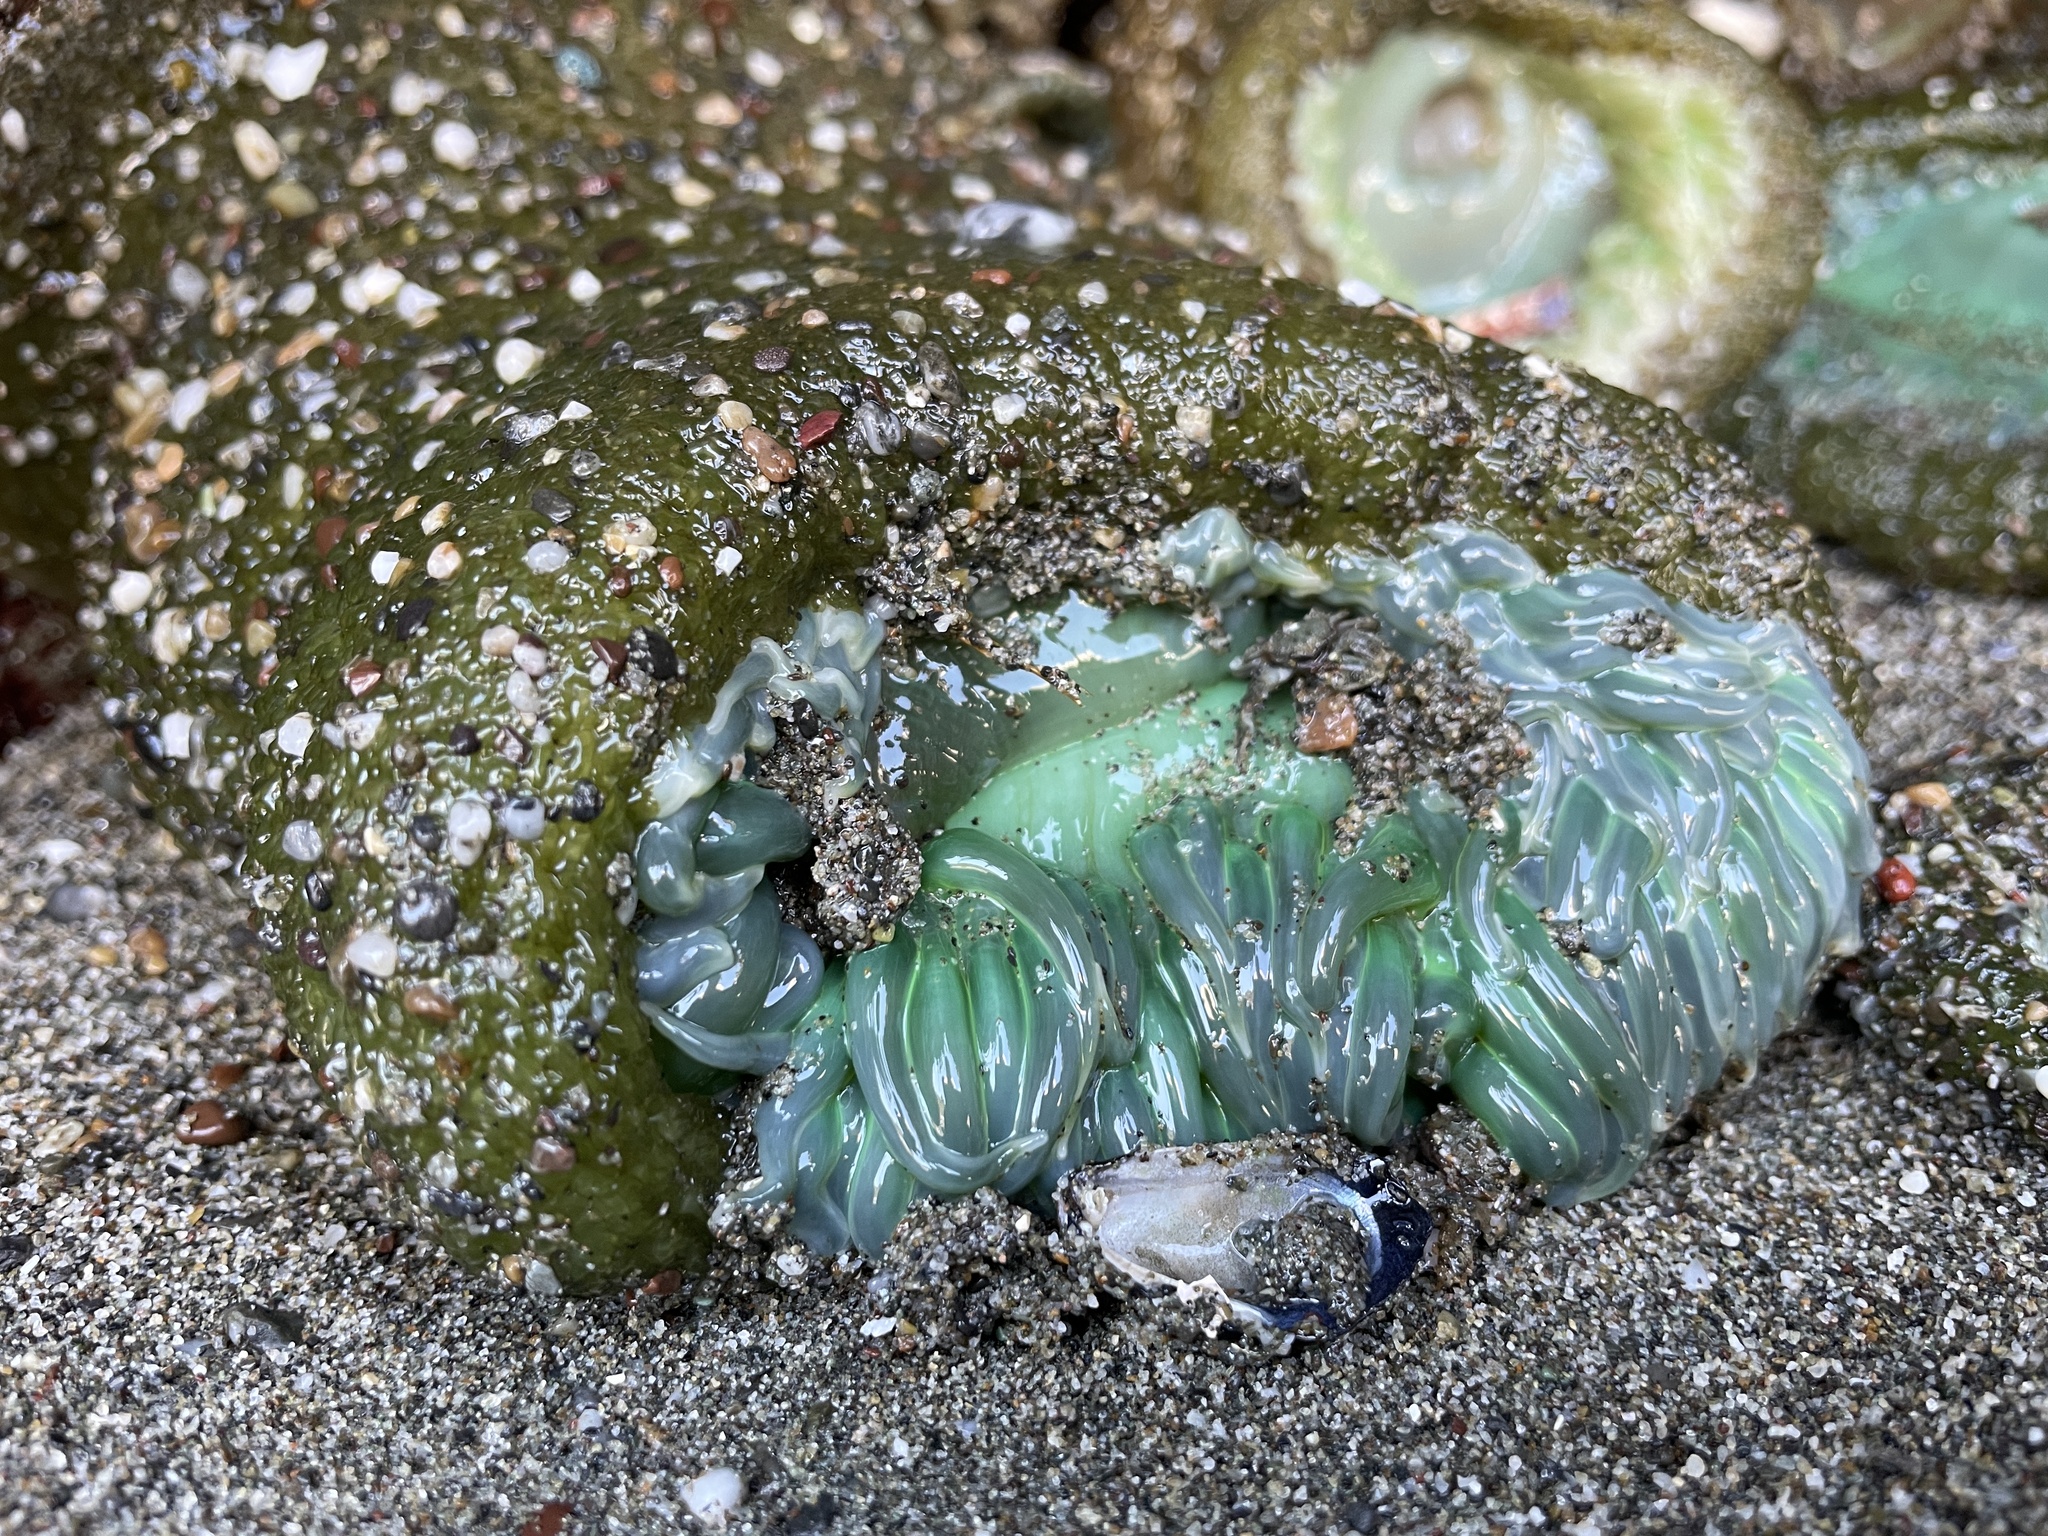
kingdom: Animalia
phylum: Cnidaria
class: Anthozoa
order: Actiniaria
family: Actiniidae
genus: Anthopleura
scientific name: Anthopleura xanthogrammica
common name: Giant green anemone
